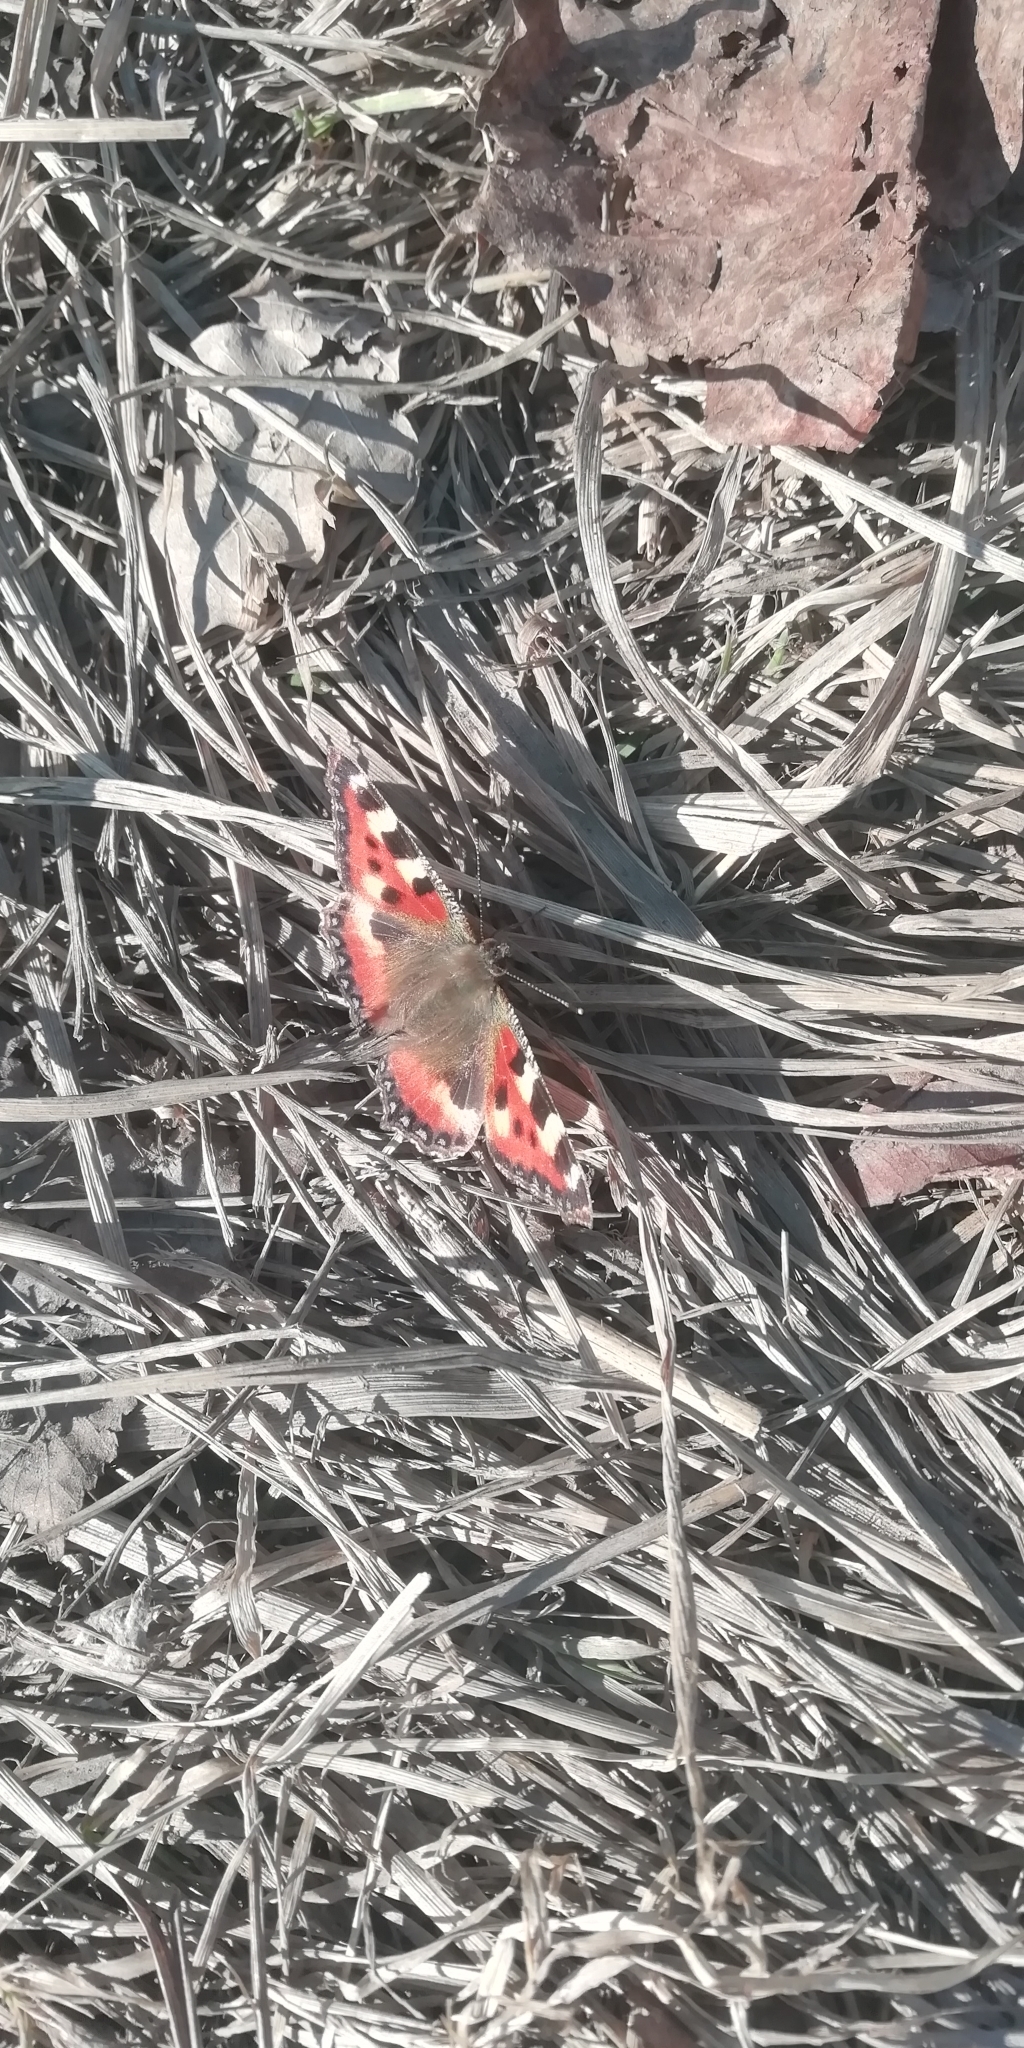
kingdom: Animalia
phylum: Arthropoda
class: Insecta
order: Lepidoptera
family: Nymphalidae
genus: Aglais
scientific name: Aglais urticae
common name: Small tortoiseshell
